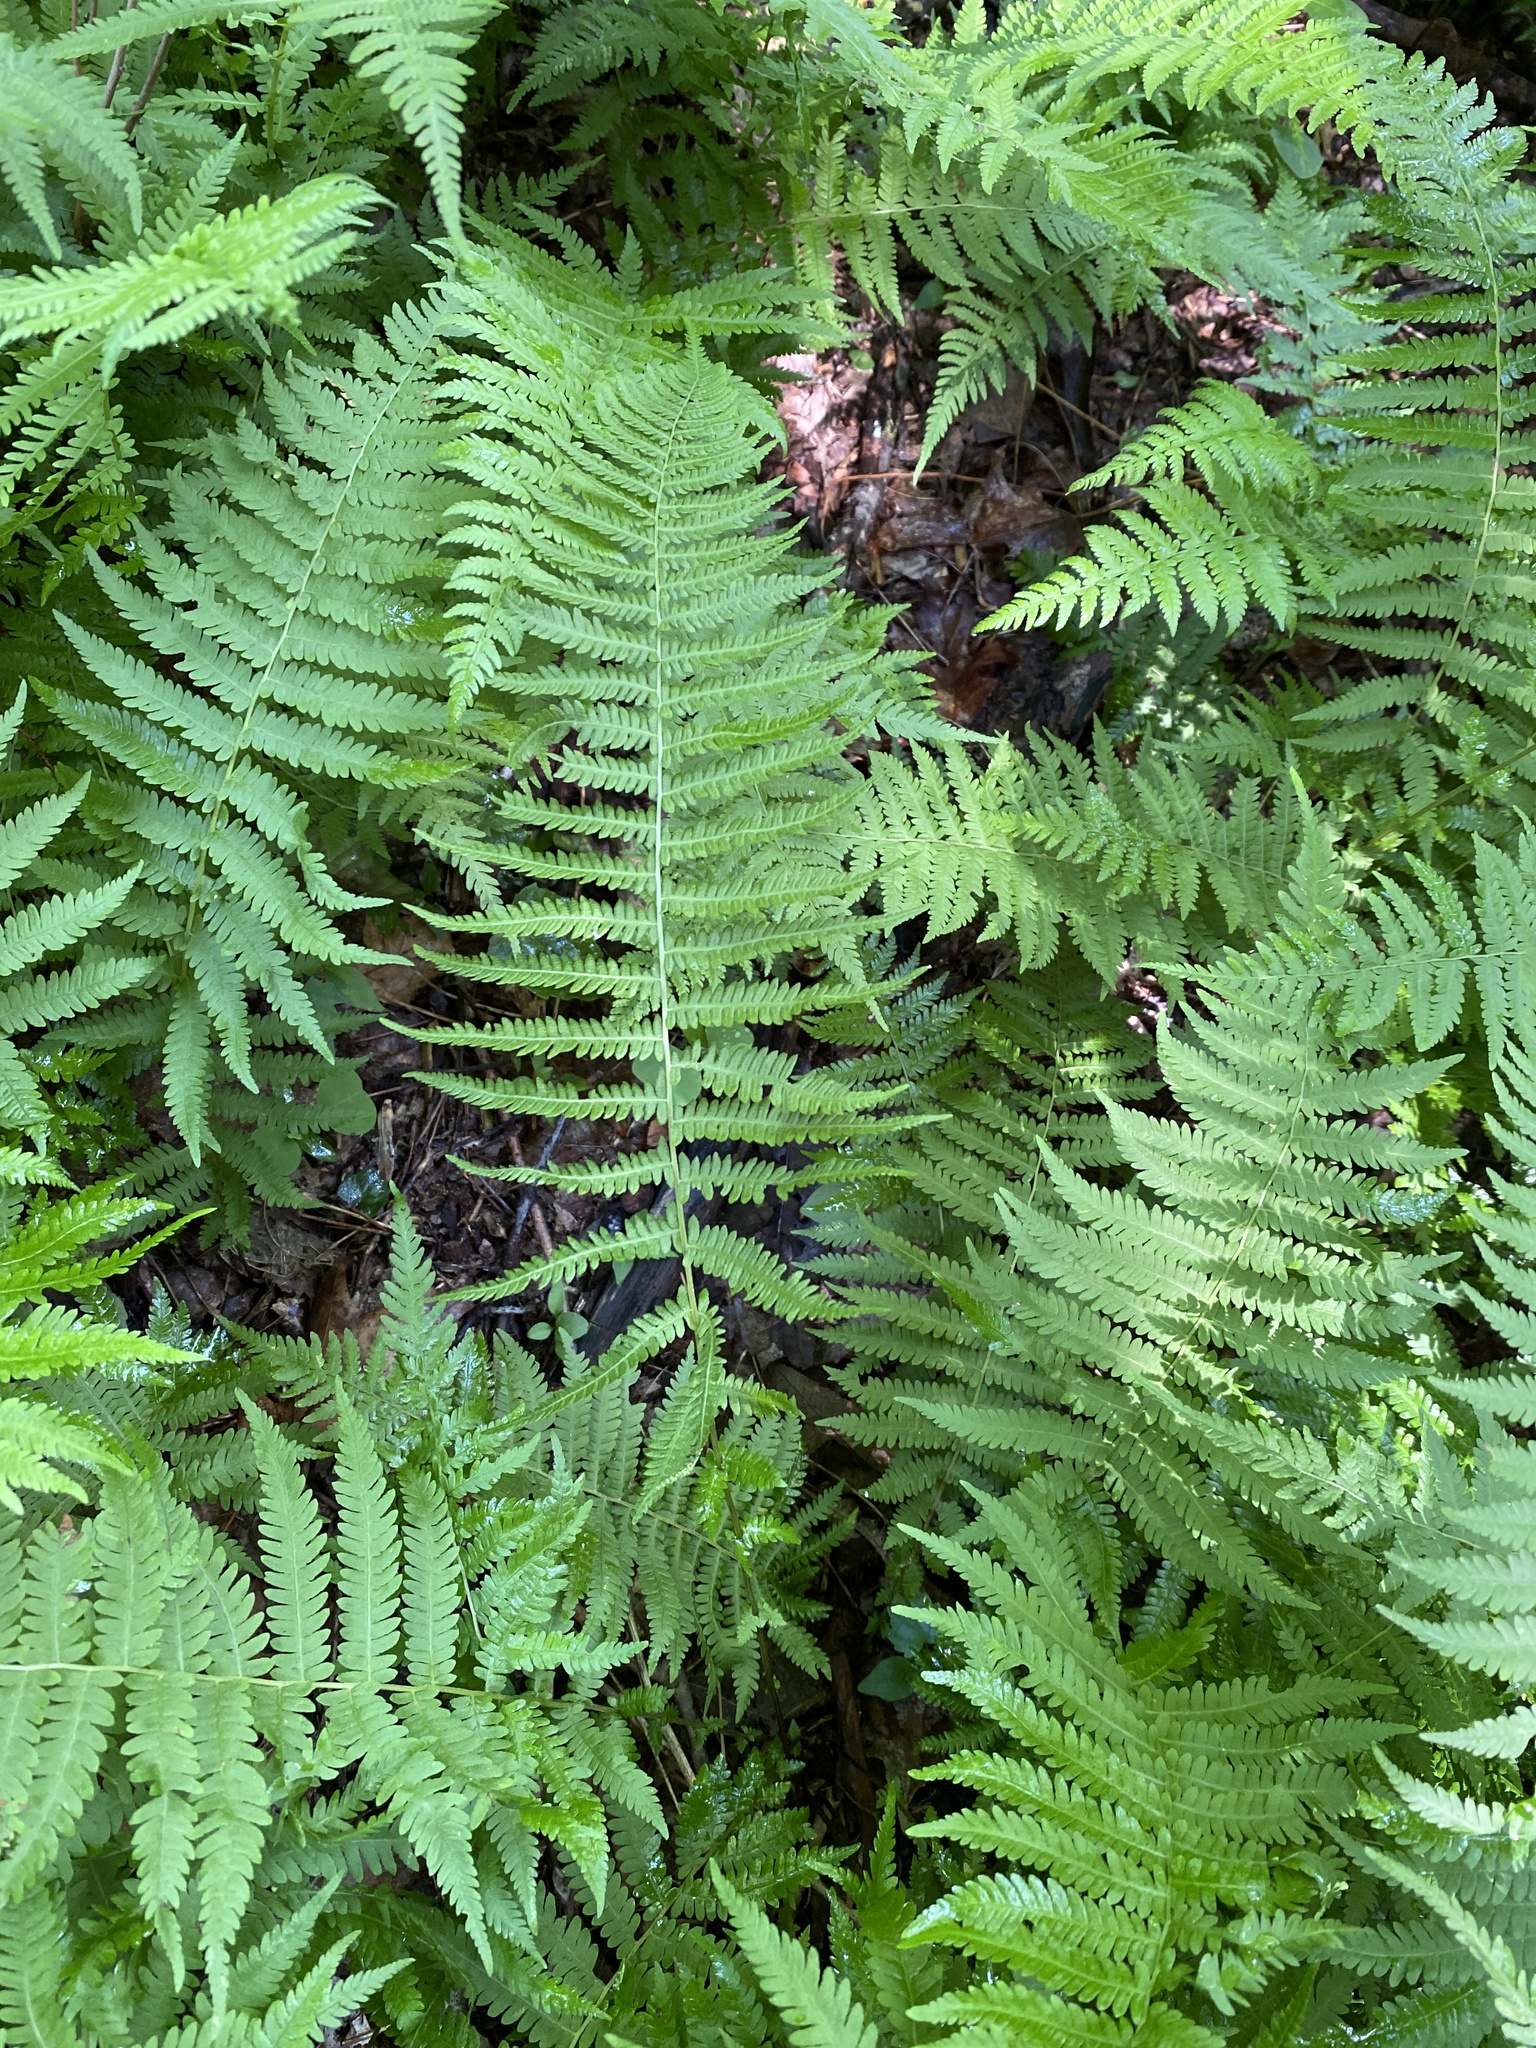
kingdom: Plantae
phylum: Tracheophyta
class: Polypodiopsida
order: Polypodiales
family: Thelypteridaceae
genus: Amauropelta
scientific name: Amauropelta noveboracensis
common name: New york fern
